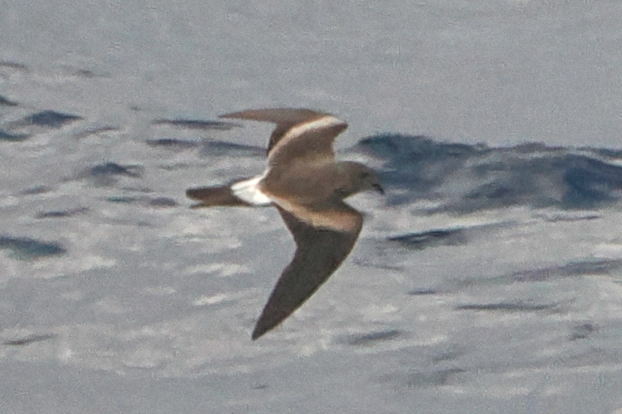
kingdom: Animalia
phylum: Chordata
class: Aves
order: Procellariiformes
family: Hydrobatidae
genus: Oceanodroma
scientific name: Oceanodroma leucorhoa
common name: Leach's storm-petrel
